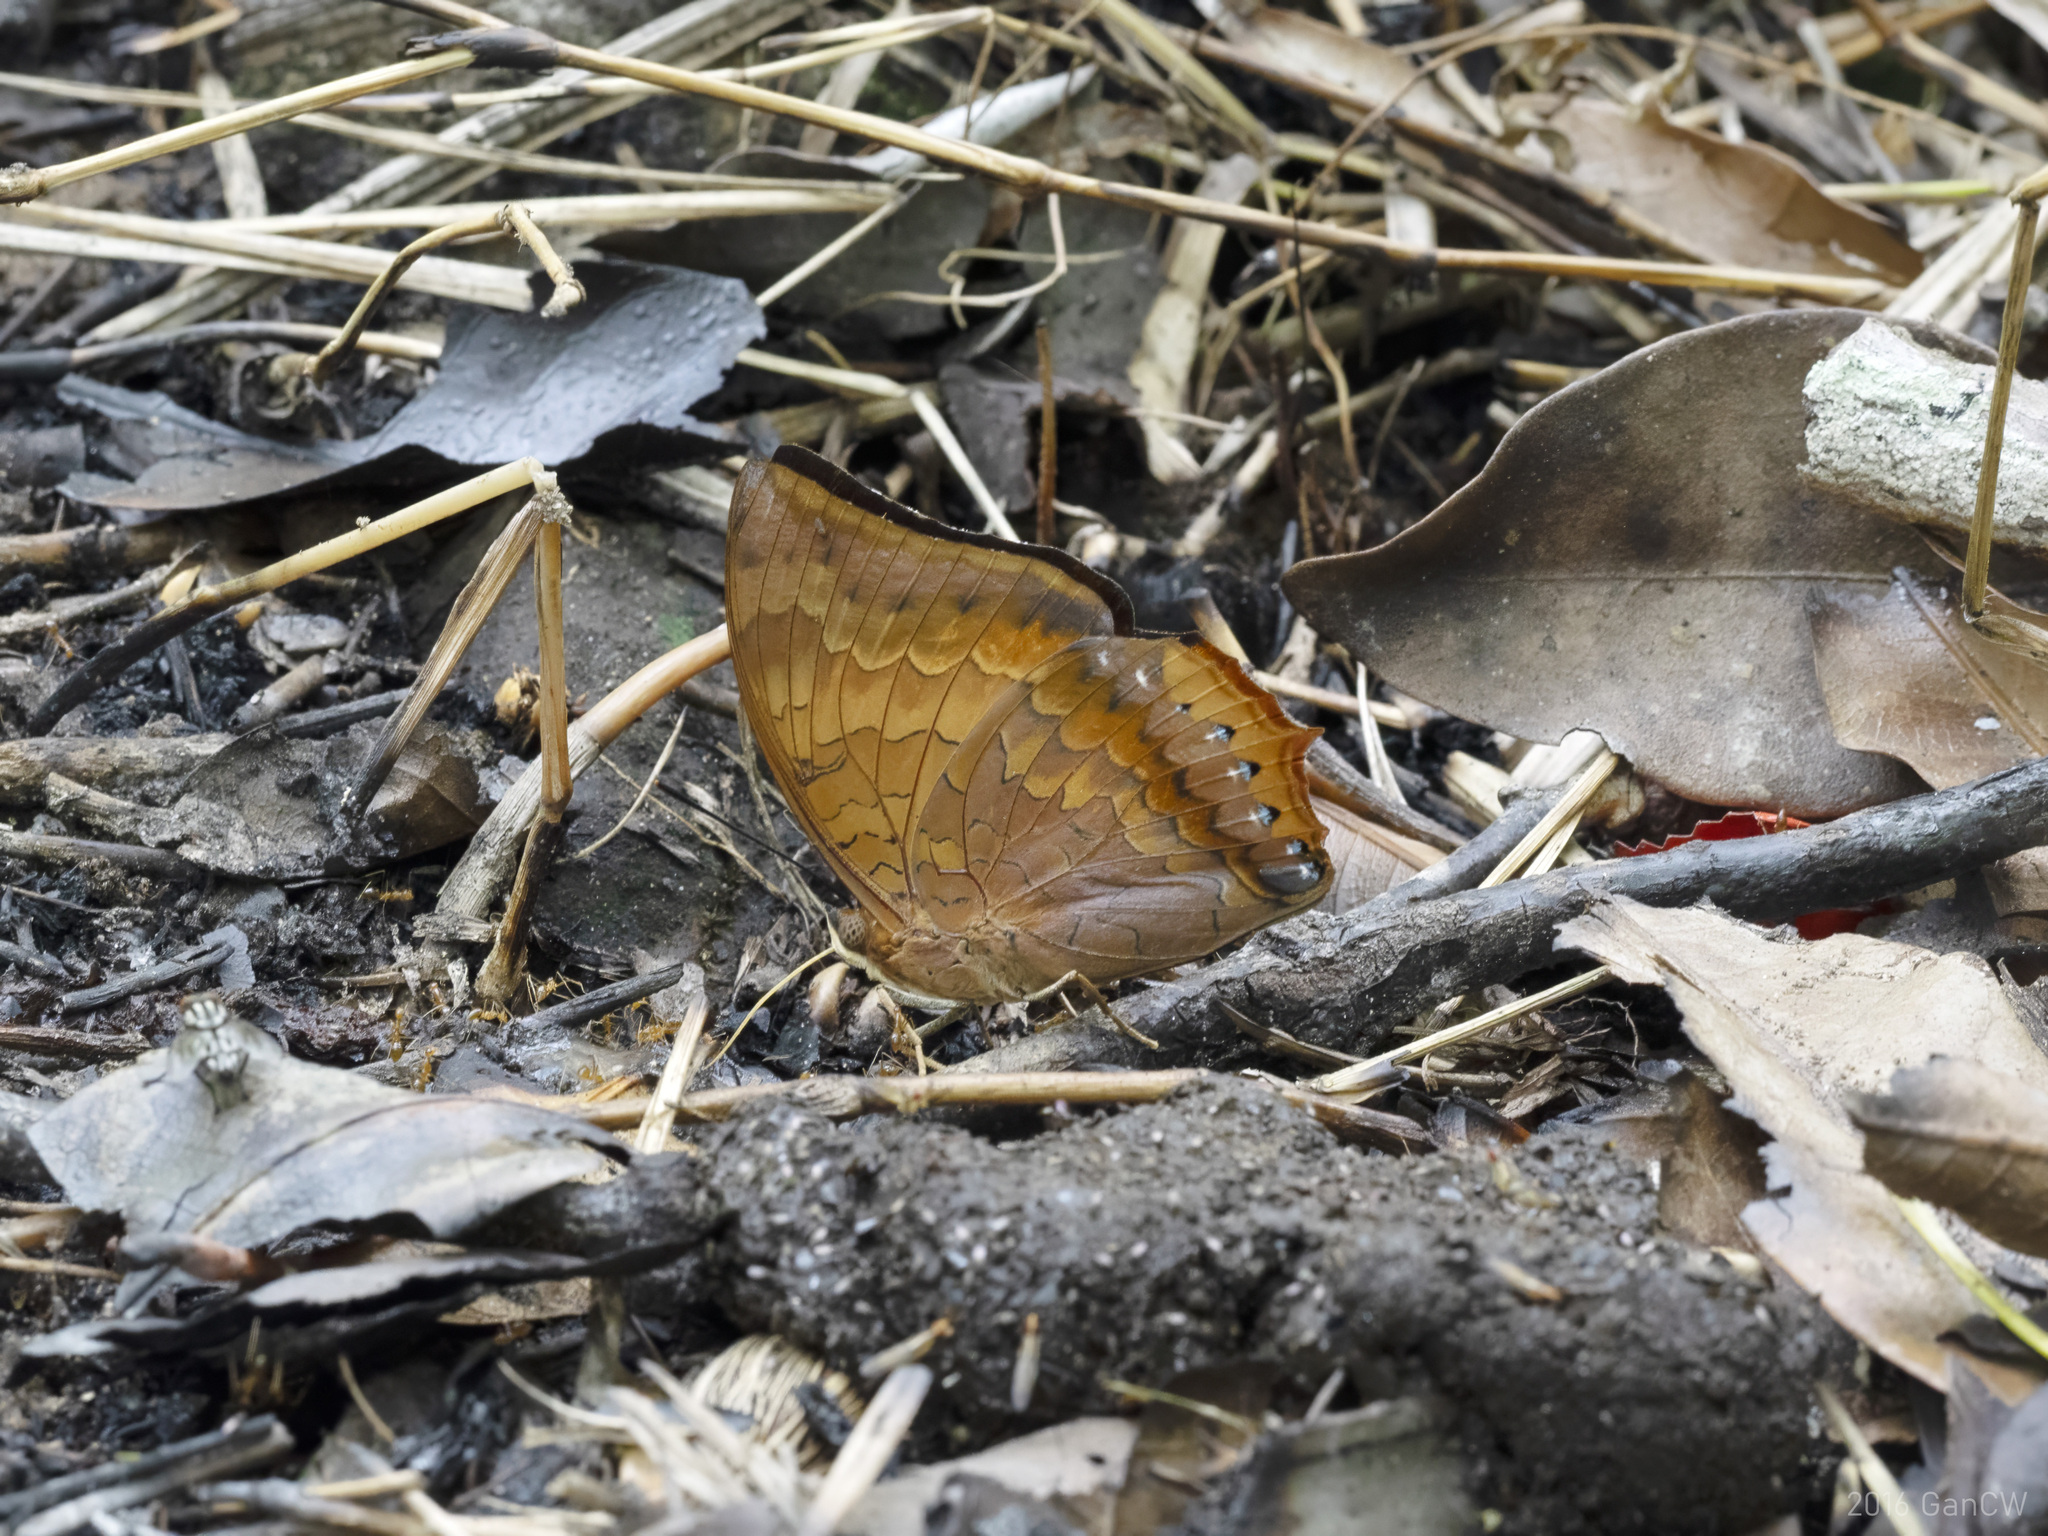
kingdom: Animalia
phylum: Arthropoda
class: Insecta
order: Lepidoptera
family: Nymphalidae
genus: Charaxes
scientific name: Charaxes bernardus
